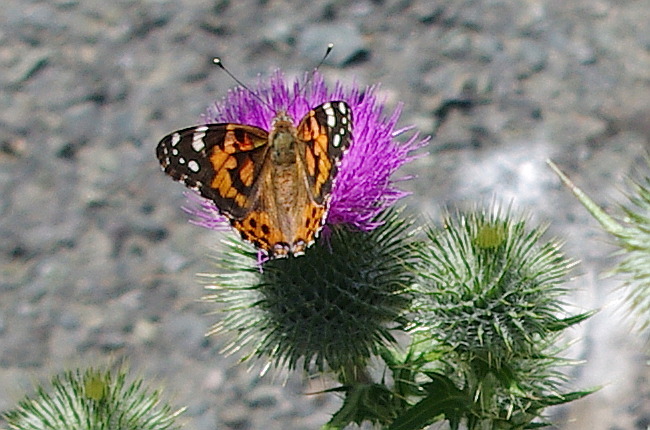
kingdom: Animalia
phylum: Arthropoda
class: Insecta
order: Lepidoptera
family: Nymphalidae
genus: Vanessa
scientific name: Vanessa cardui
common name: Painted lady
